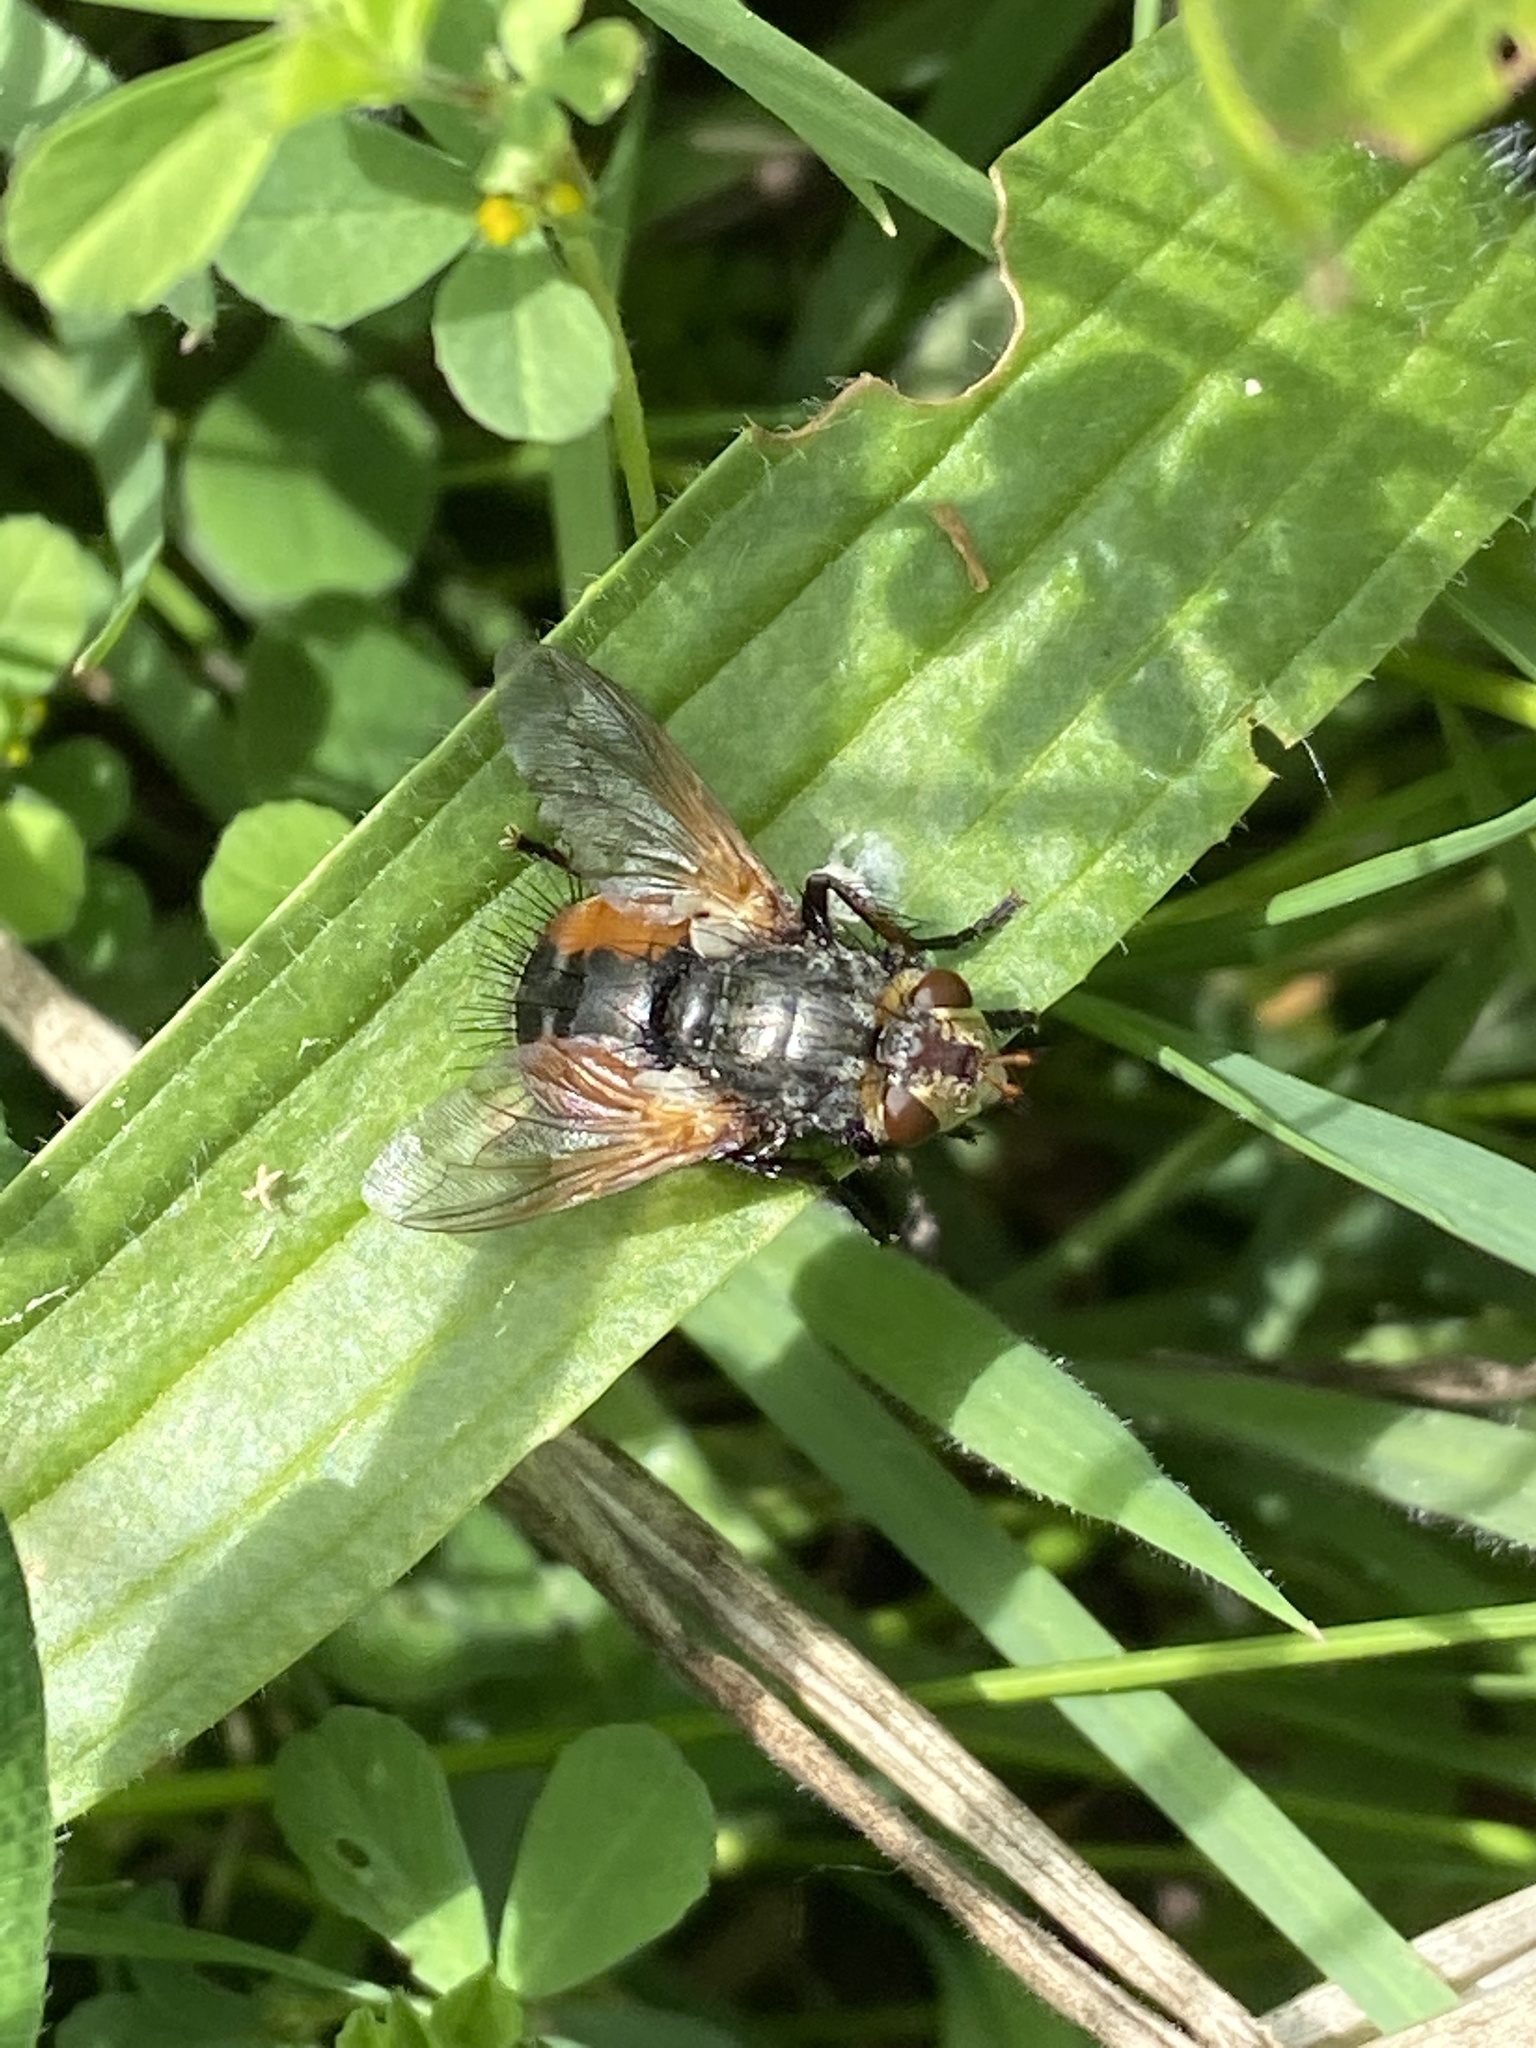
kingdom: Animalia
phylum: Arthropoda
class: Insecta
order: Diptera
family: Tachinidae
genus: Tachina
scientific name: Tachina fera
